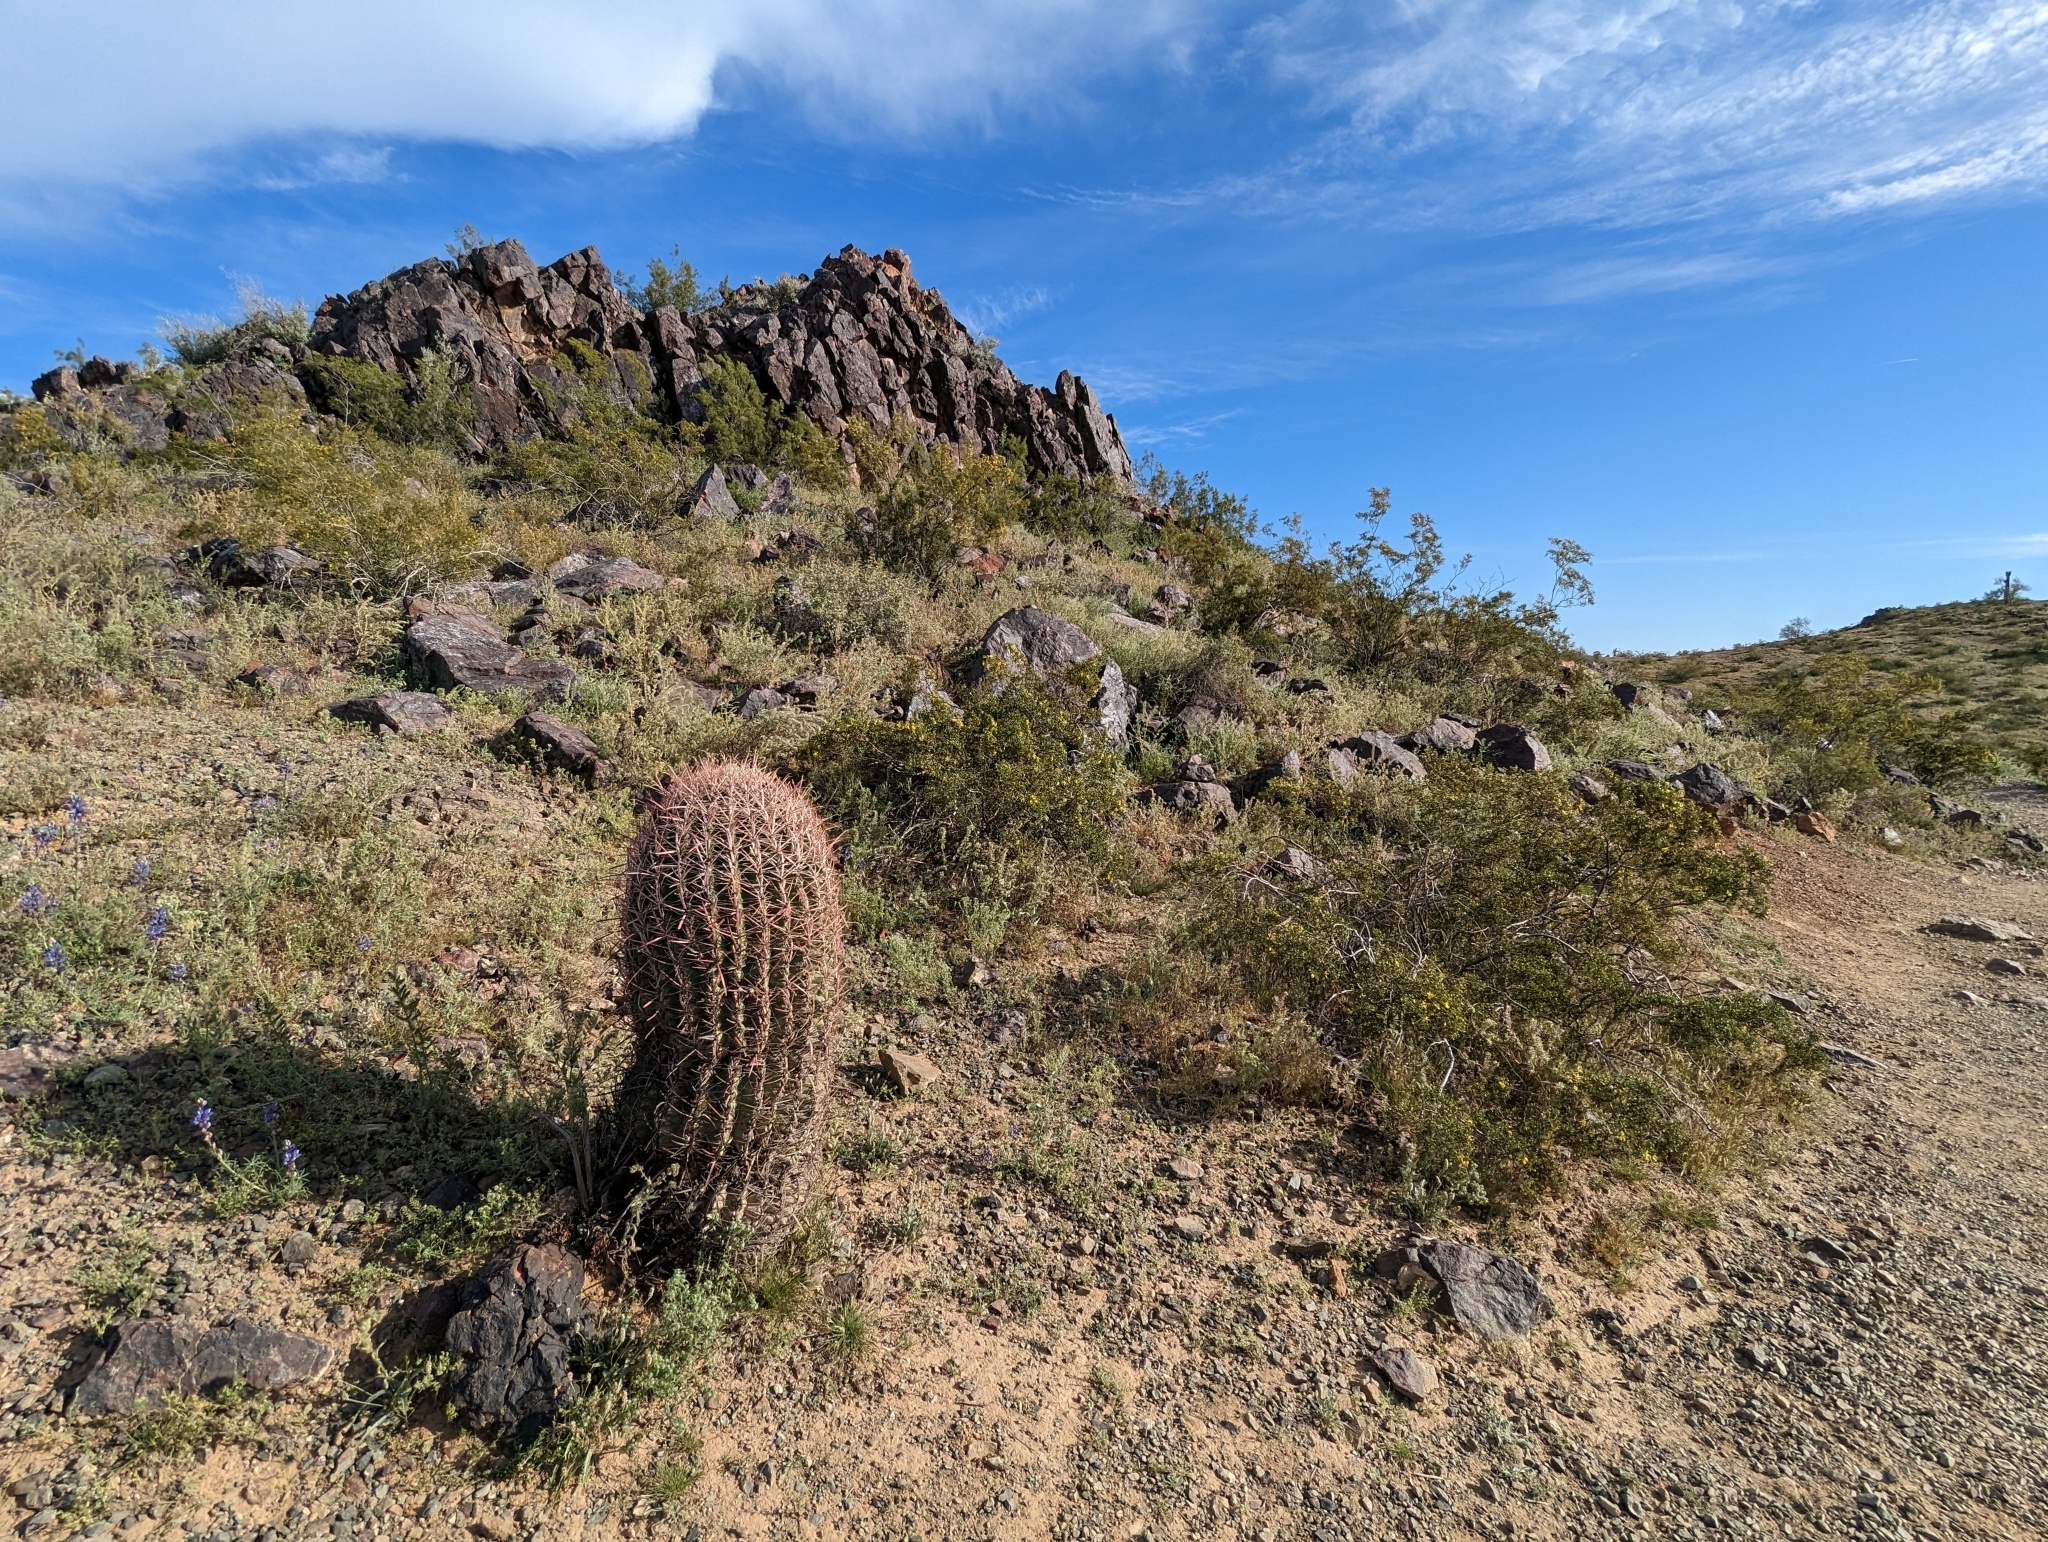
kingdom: Plantae
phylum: Tracheophyta
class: Magnoliopsida
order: Caryophyllales
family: Cactaceae
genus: Ferocactus
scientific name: Ferocactus cylindraceus
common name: California barrel cactus
